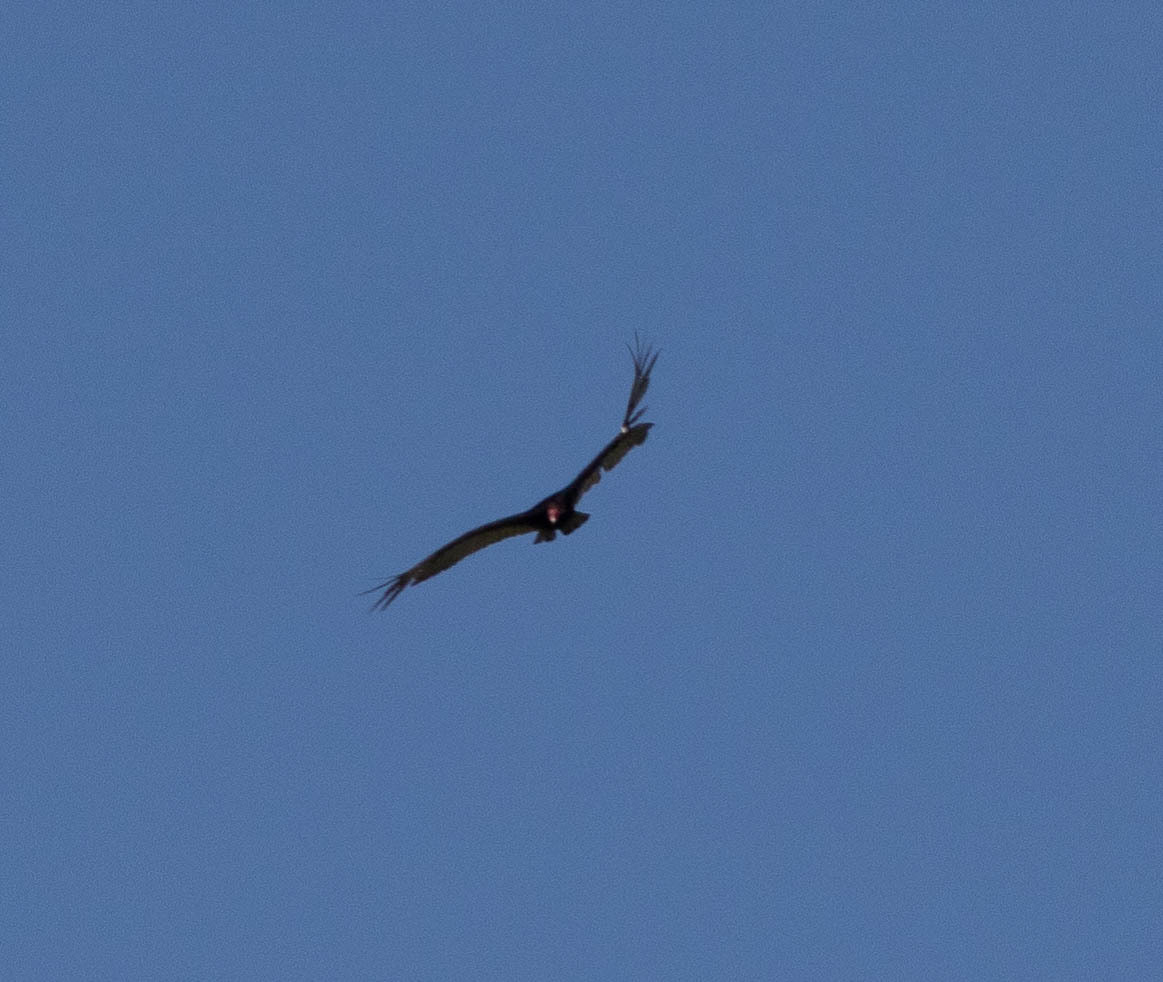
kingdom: Animalia
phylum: Chordata
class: Aves
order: Accipitriformes
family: Cathartidae
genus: Cathartes
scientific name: Cathartes aura
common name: Turkey vulture
